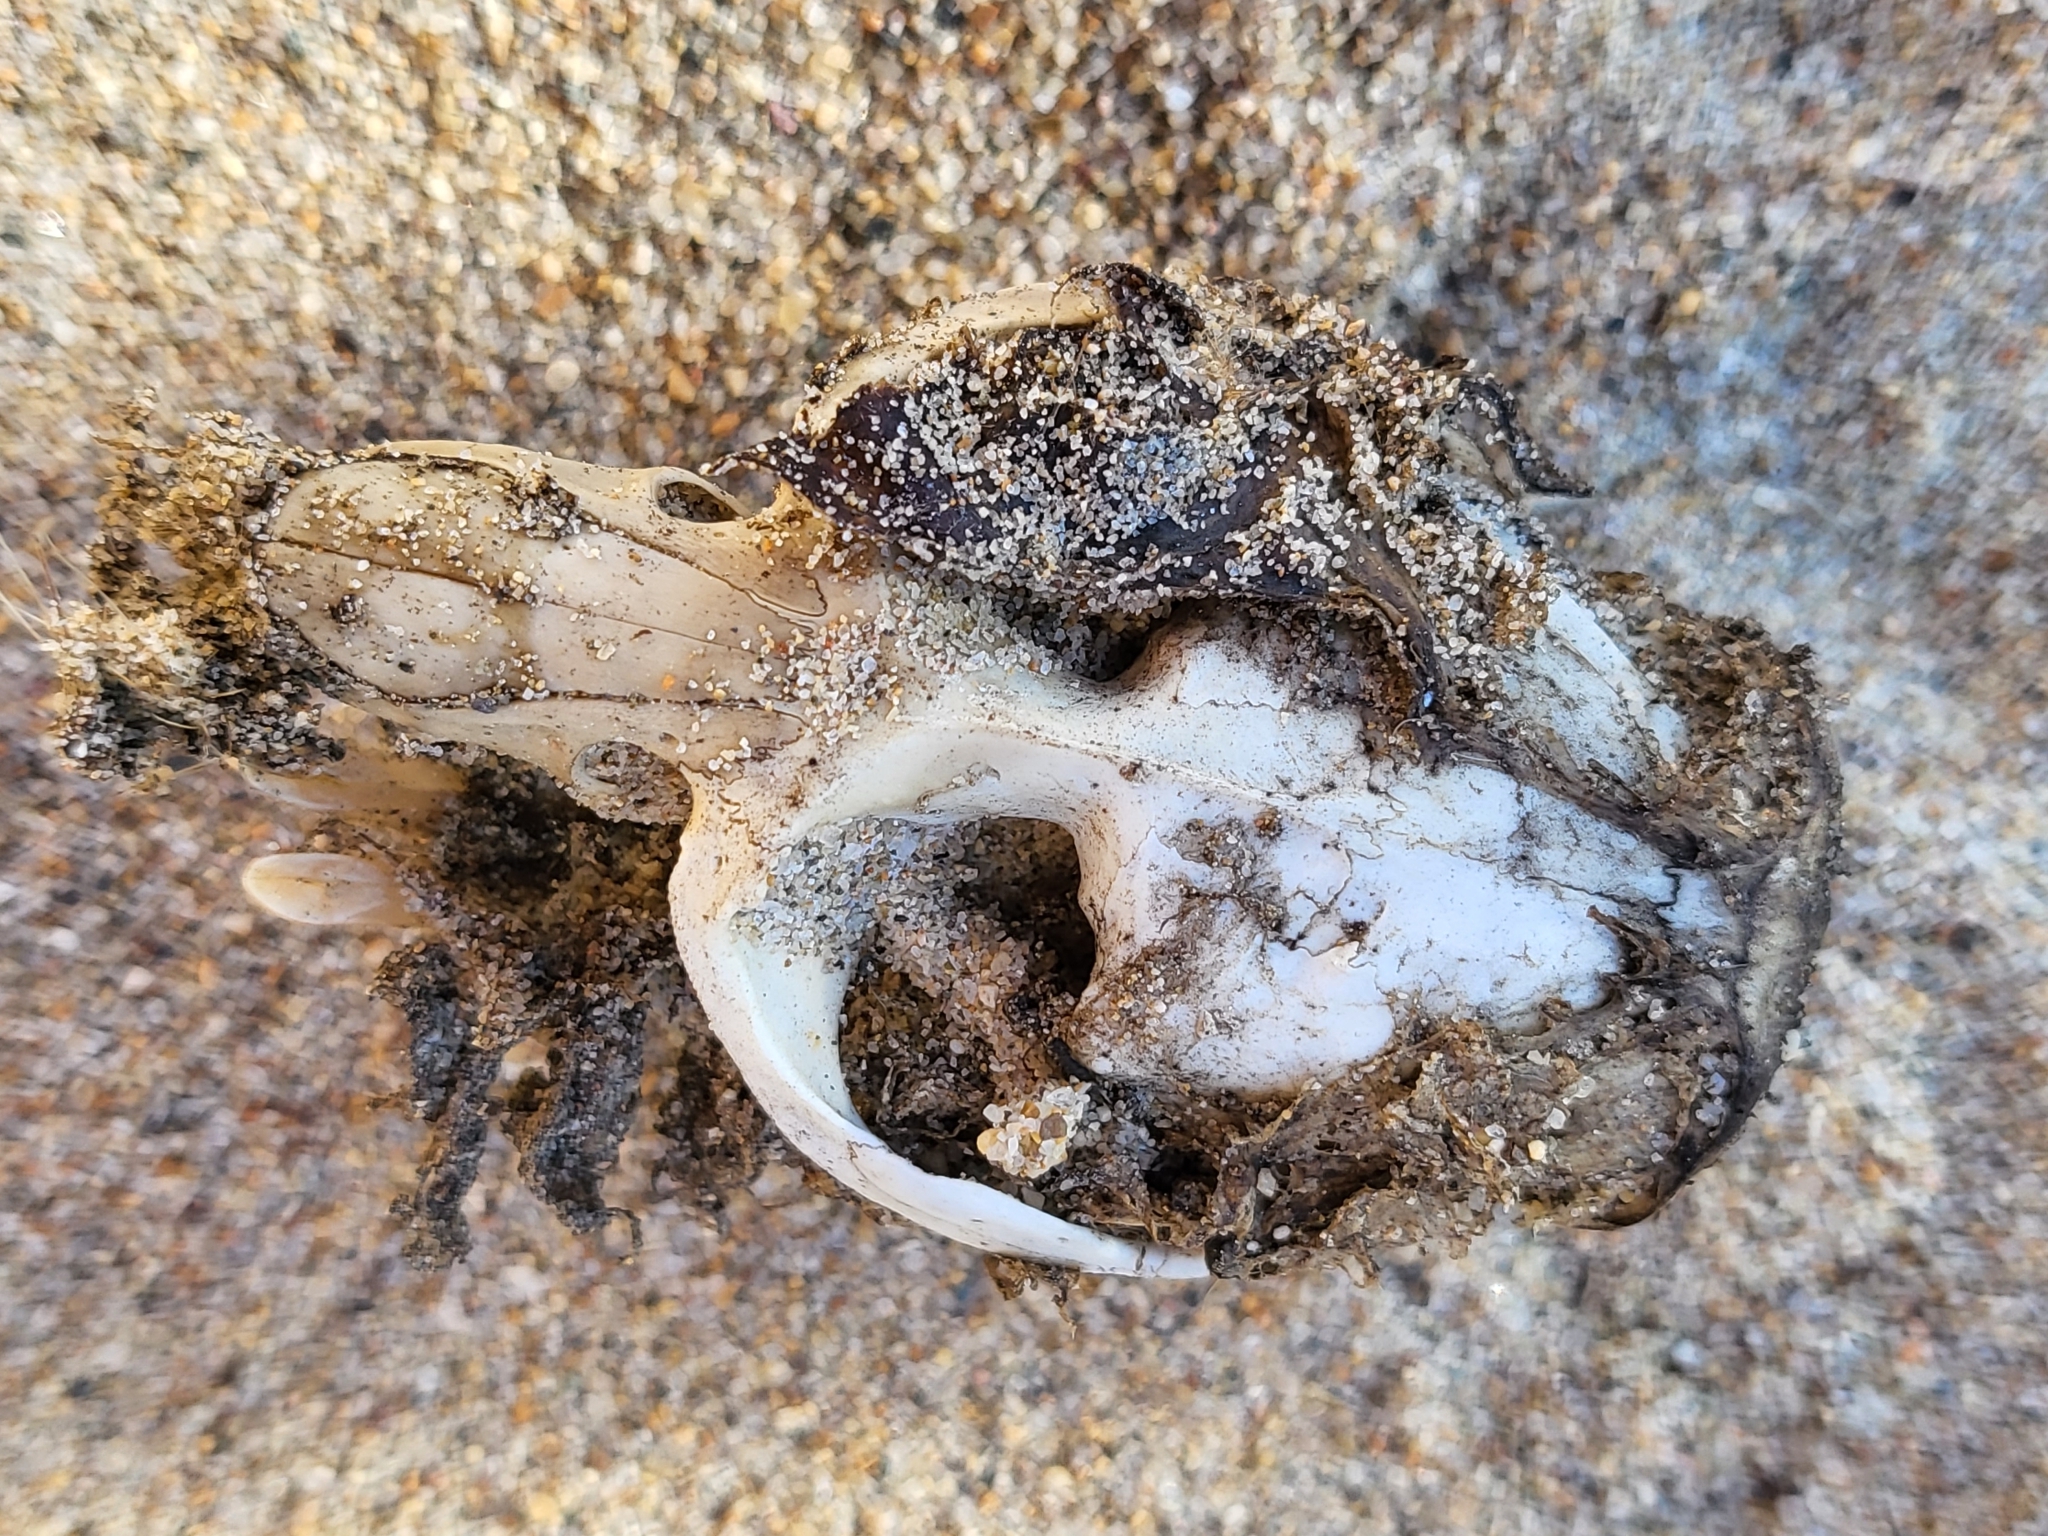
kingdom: Animalia
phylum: Chordata
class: Mammalia
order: Rodentia
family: Cricetidae
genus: Ondatra
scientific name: Ondatra zibethicus
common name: Muskrat
